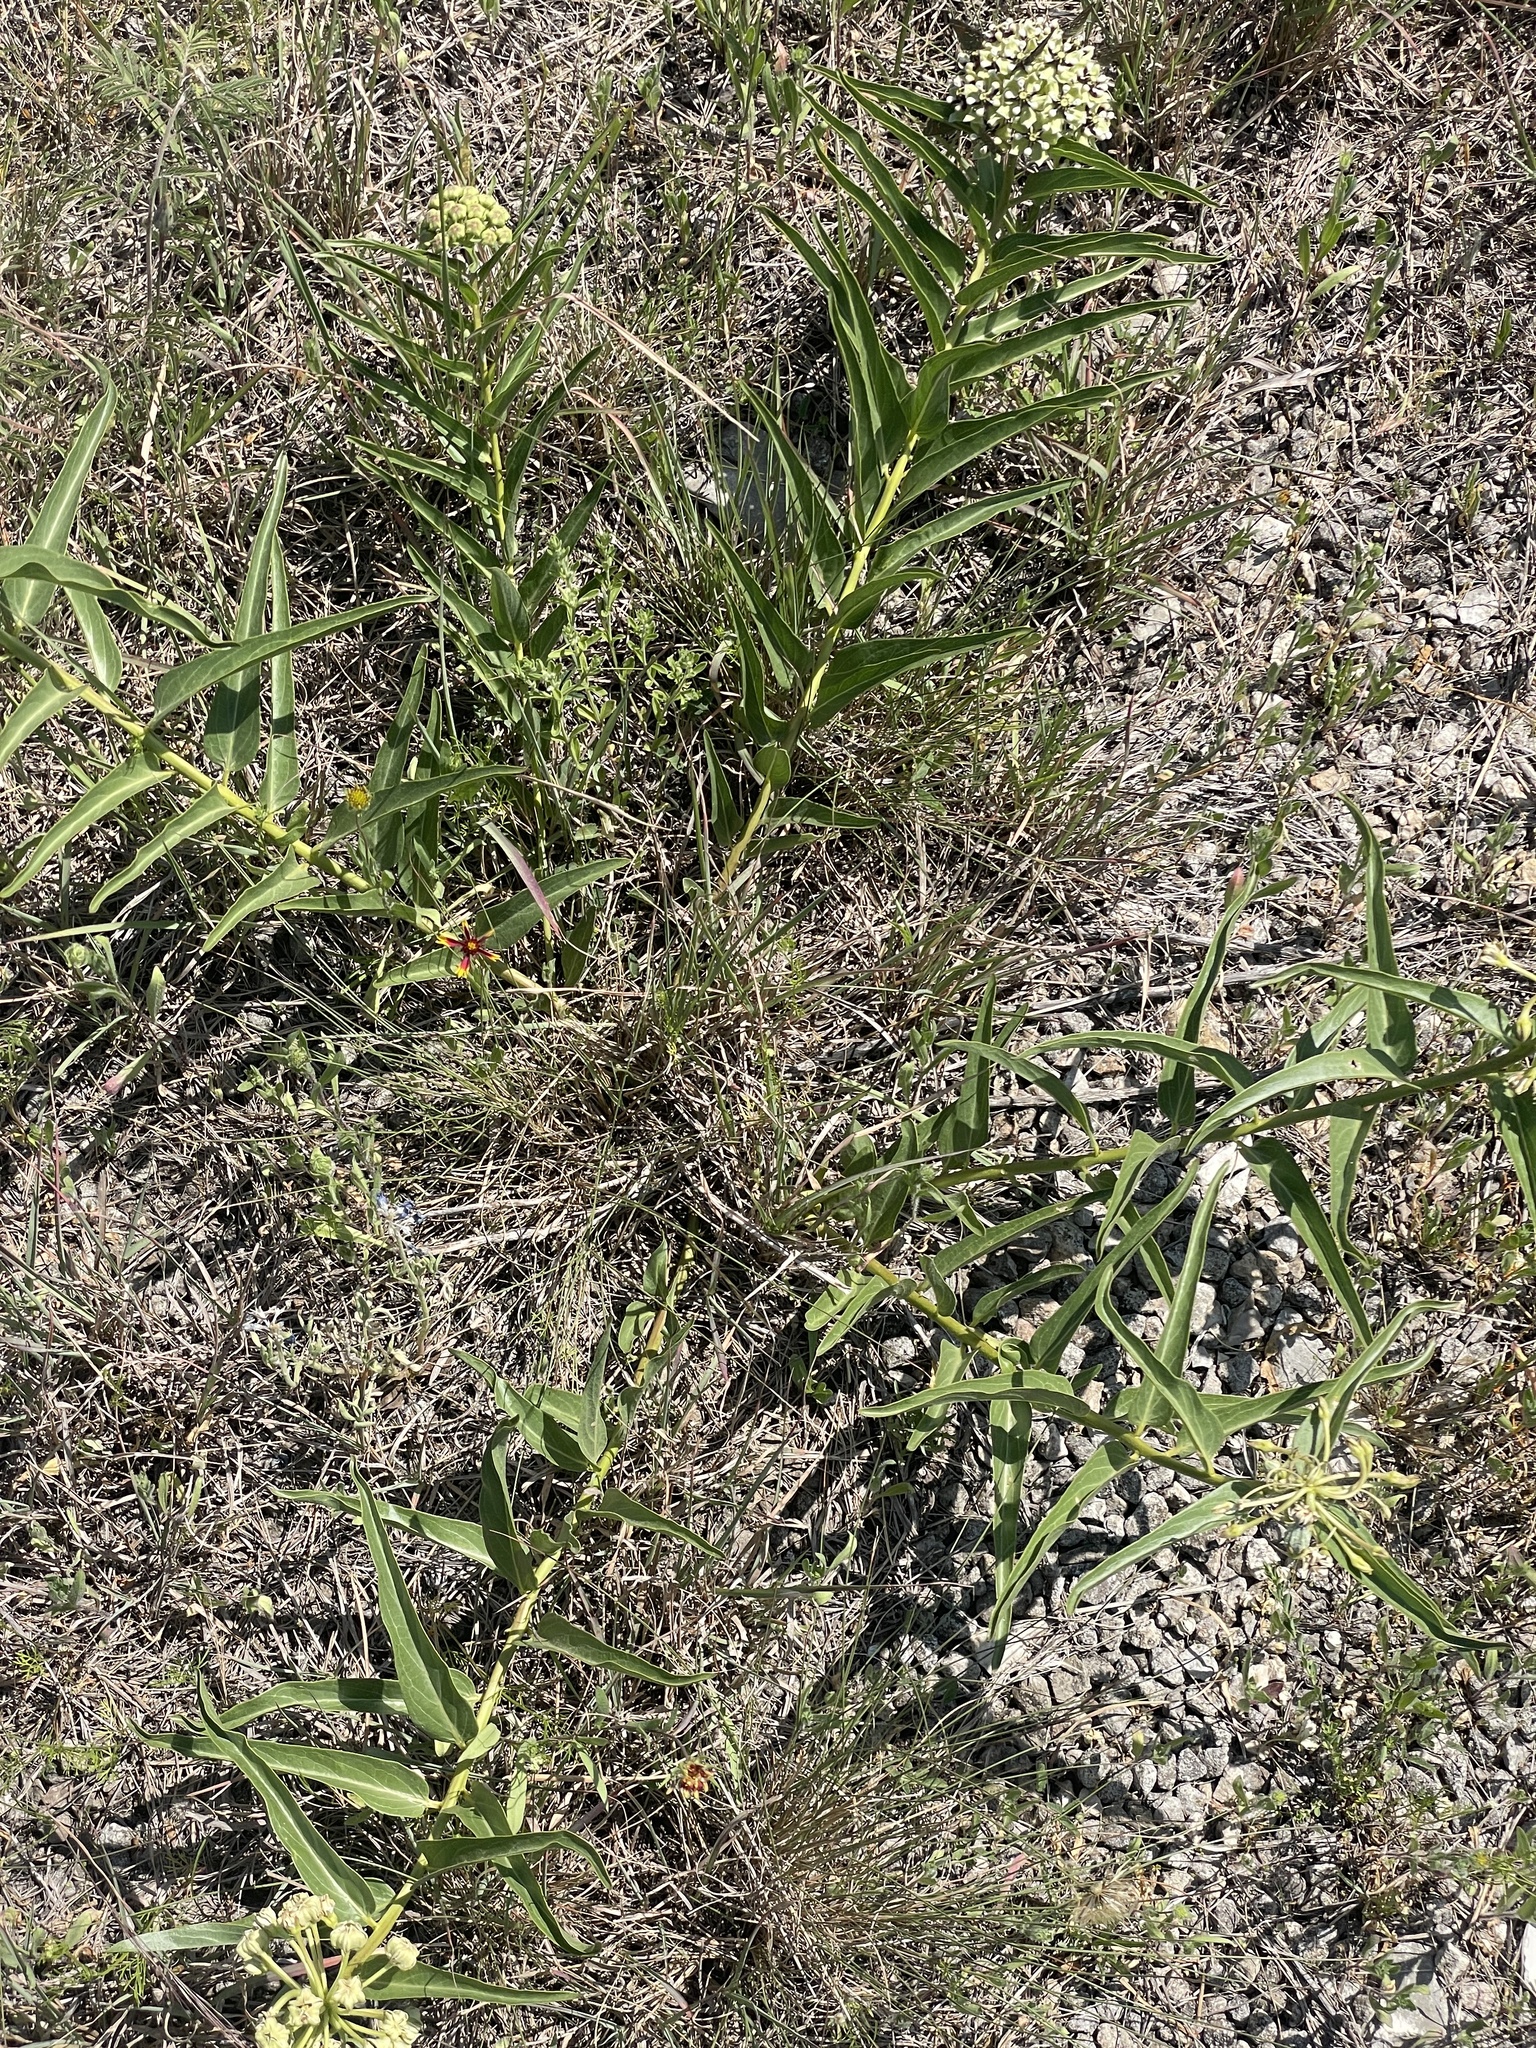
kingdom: Plantae
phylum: Tracheophyta
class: Magnoliopsida
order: Gentianales
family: Apocynaceae
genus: Asclepias
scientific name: Asclepias asperula
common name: Antelope horns
